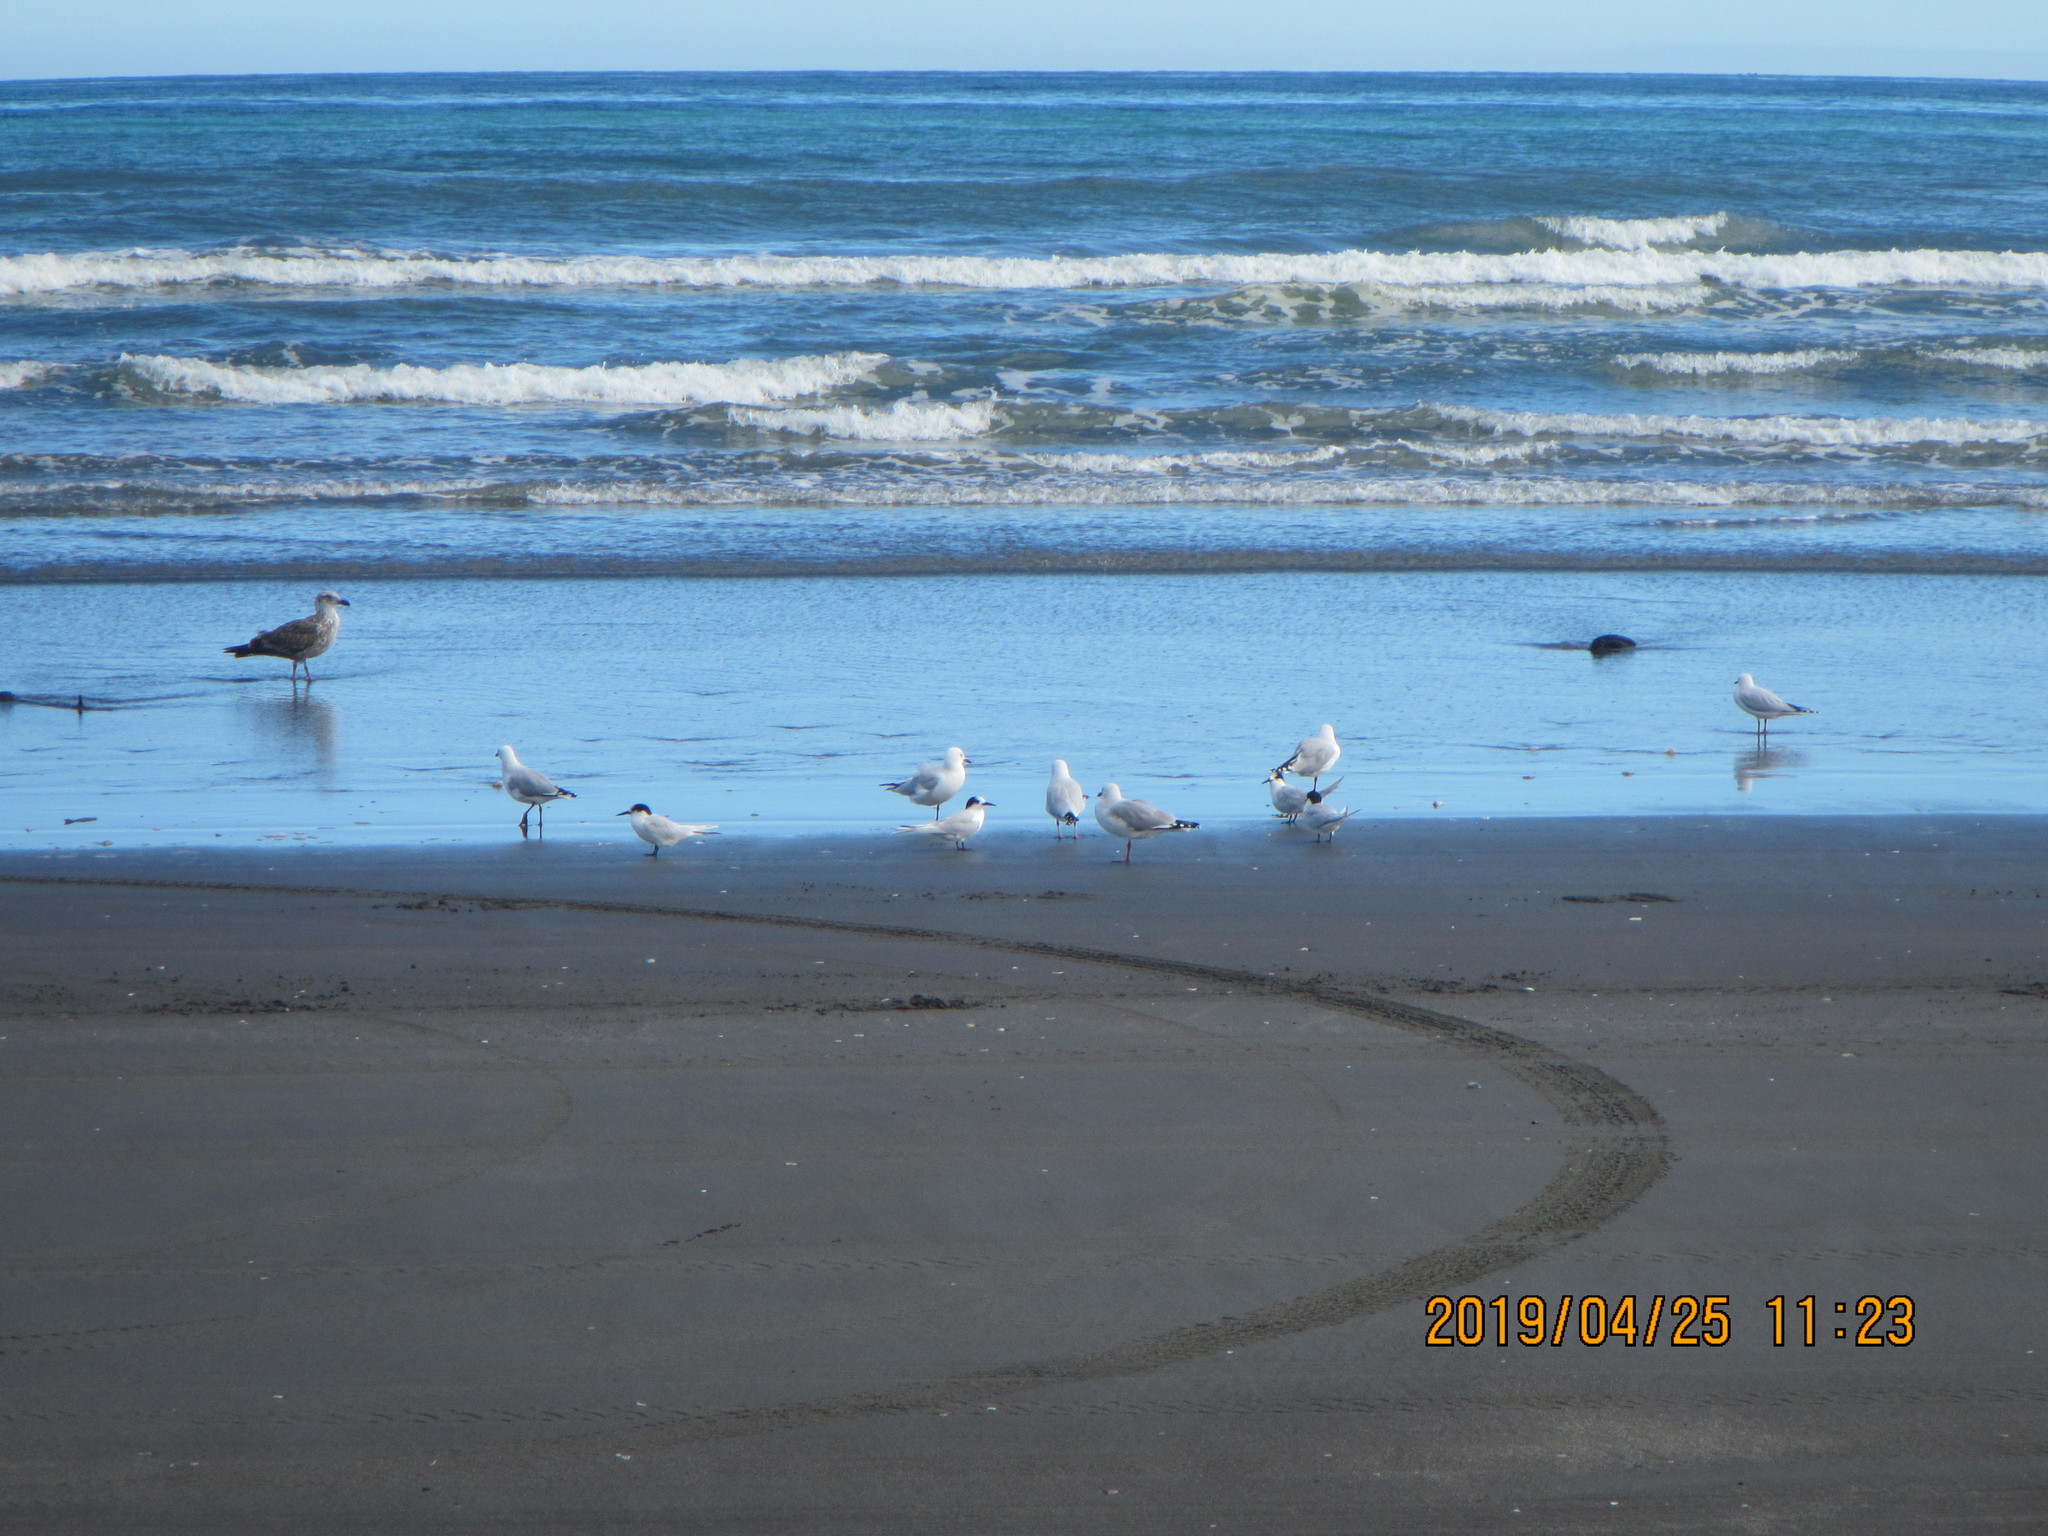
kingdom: Animalia
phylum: Chordata
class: Aves
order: Charadriiformes
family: Laridae
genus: Sterna
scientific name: Sterna striata
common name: White-fronted tern
